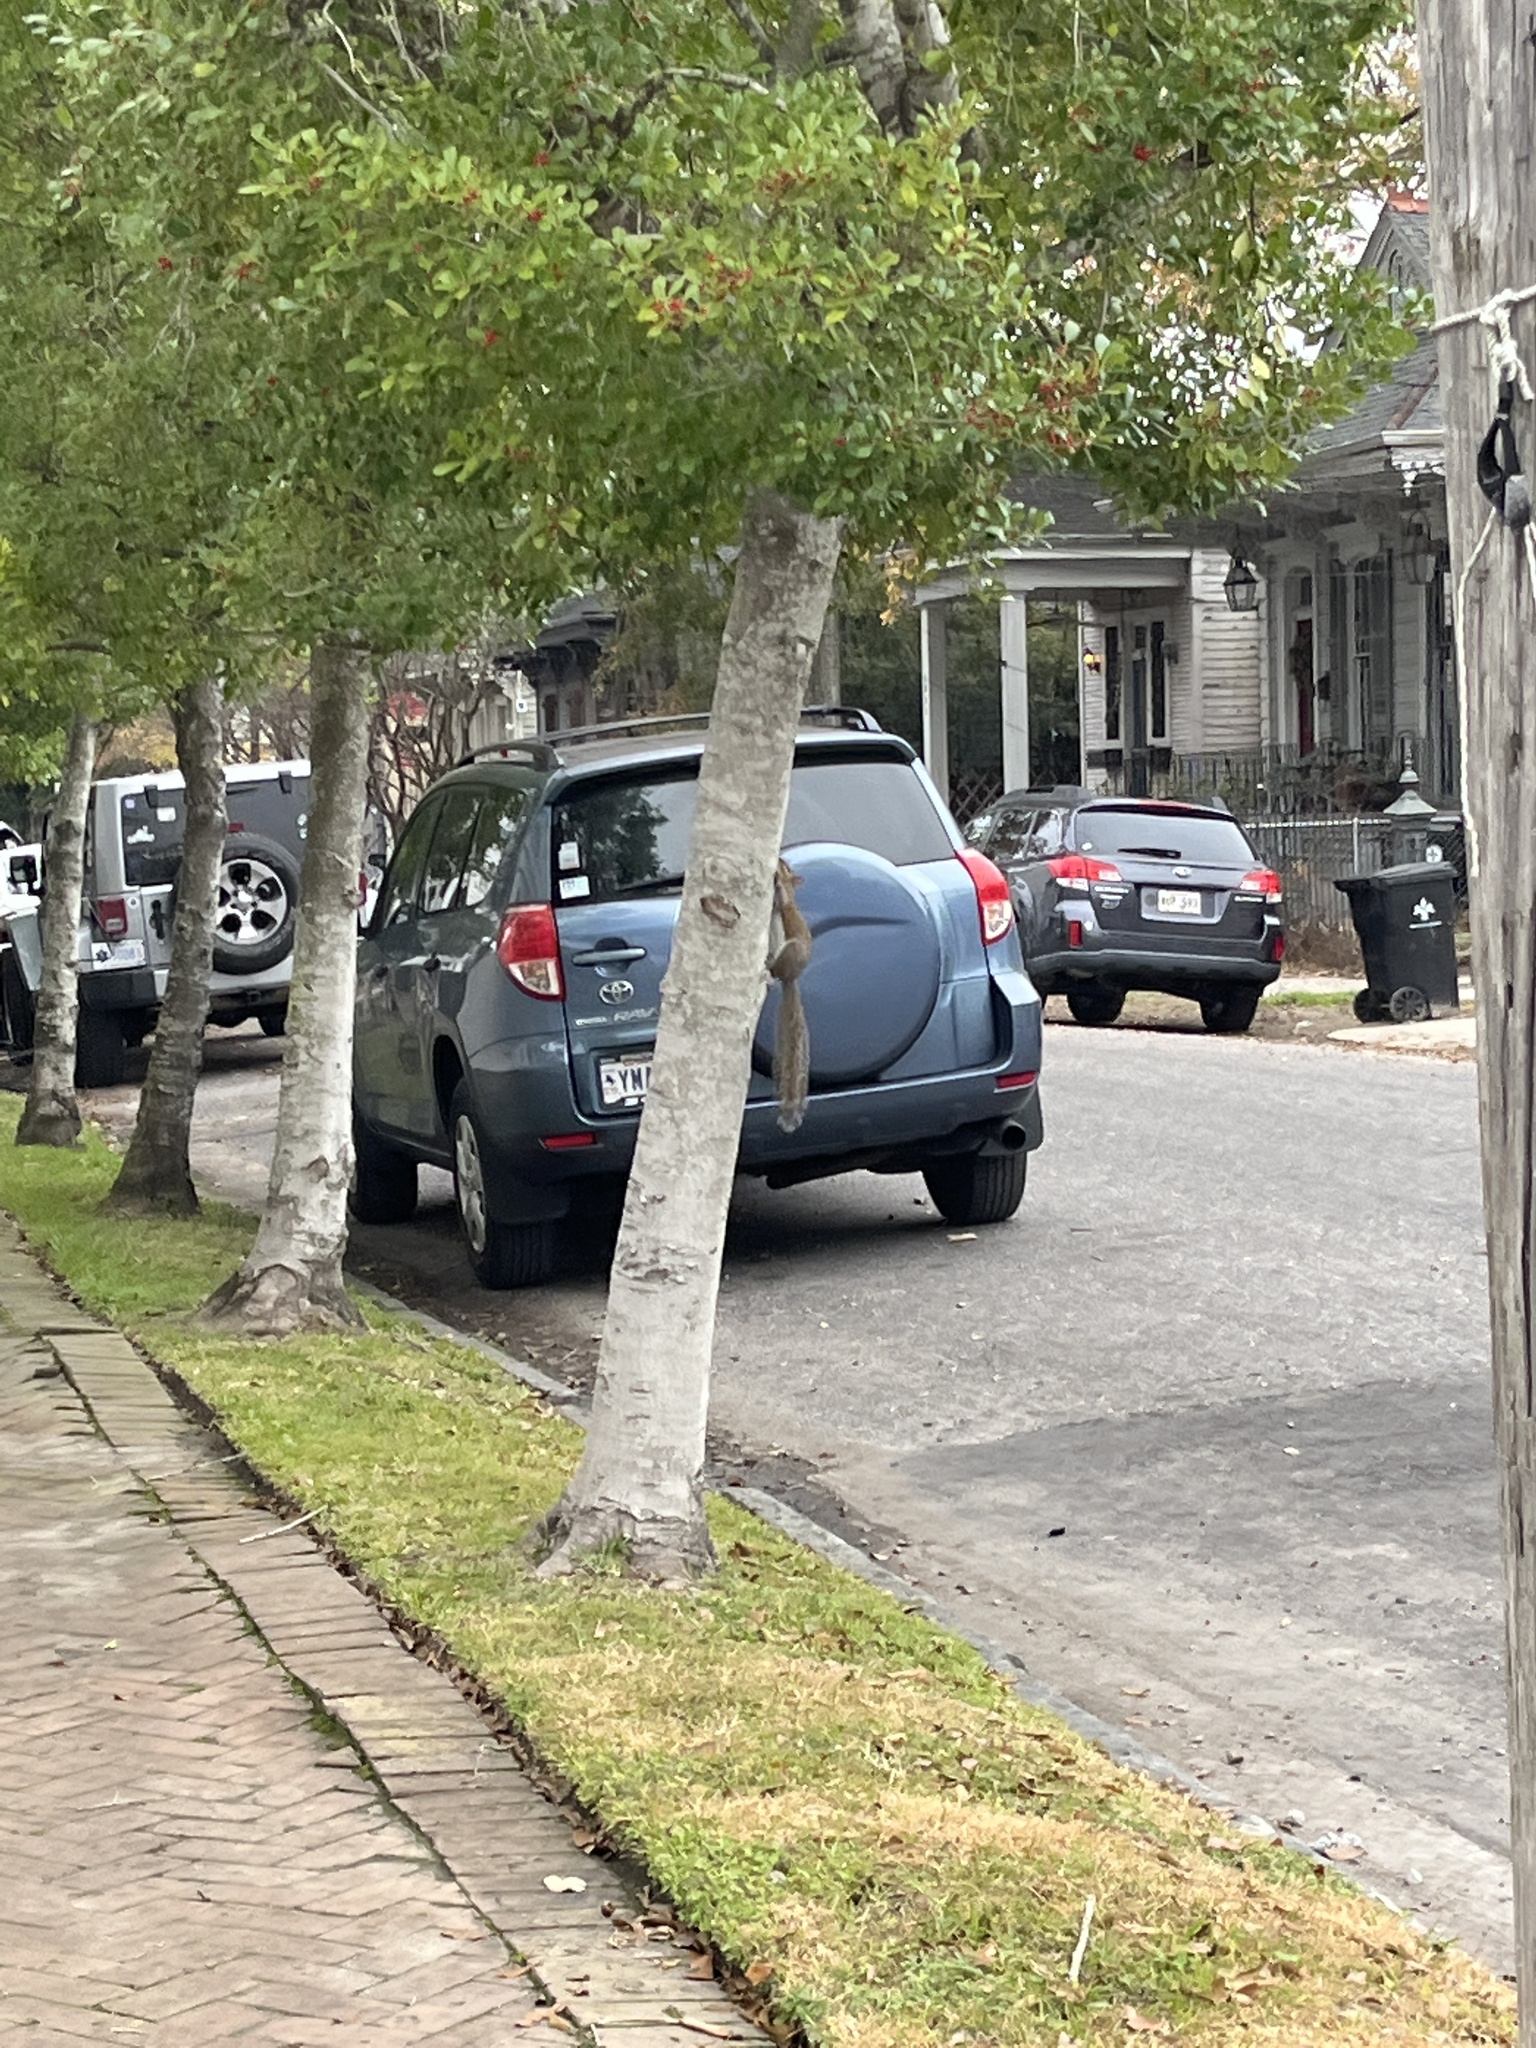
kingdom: Animalia
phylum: Chordata
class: Mammalia
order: Rodentia
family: Sciuridae
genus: Sciurus
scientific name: Sciurus carolinensis
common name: Eastern gray squirrel
